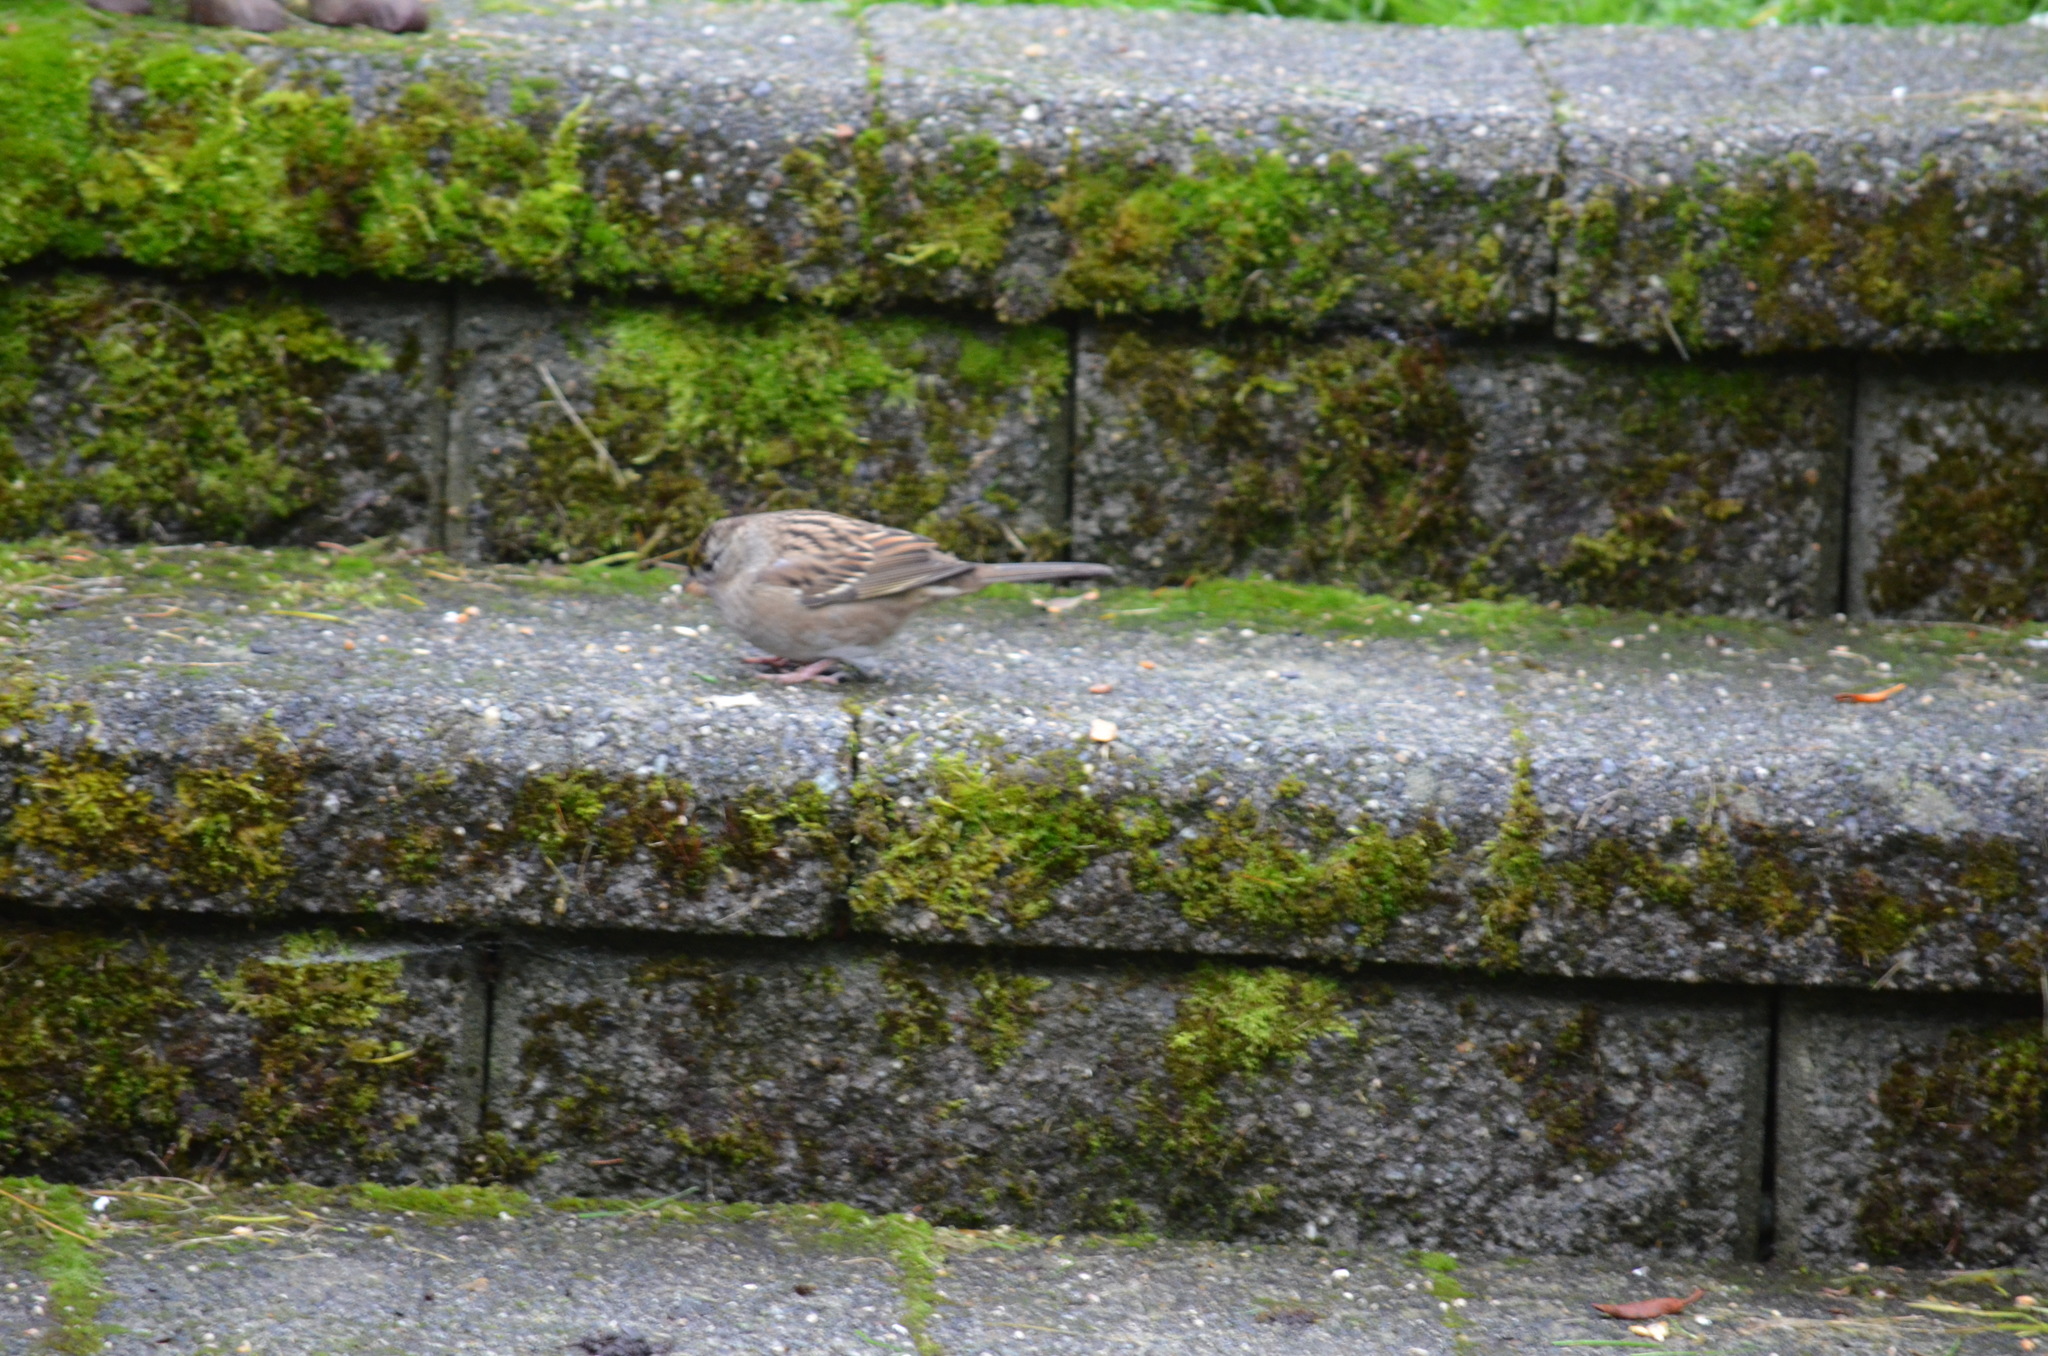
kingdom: Animalia
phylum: Chordata
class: Aves
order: Passeriformes
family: Passerellidae
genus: Zonotrichia
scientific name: Zonotrichia atricapilla
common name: Golden-crowned sparrow
